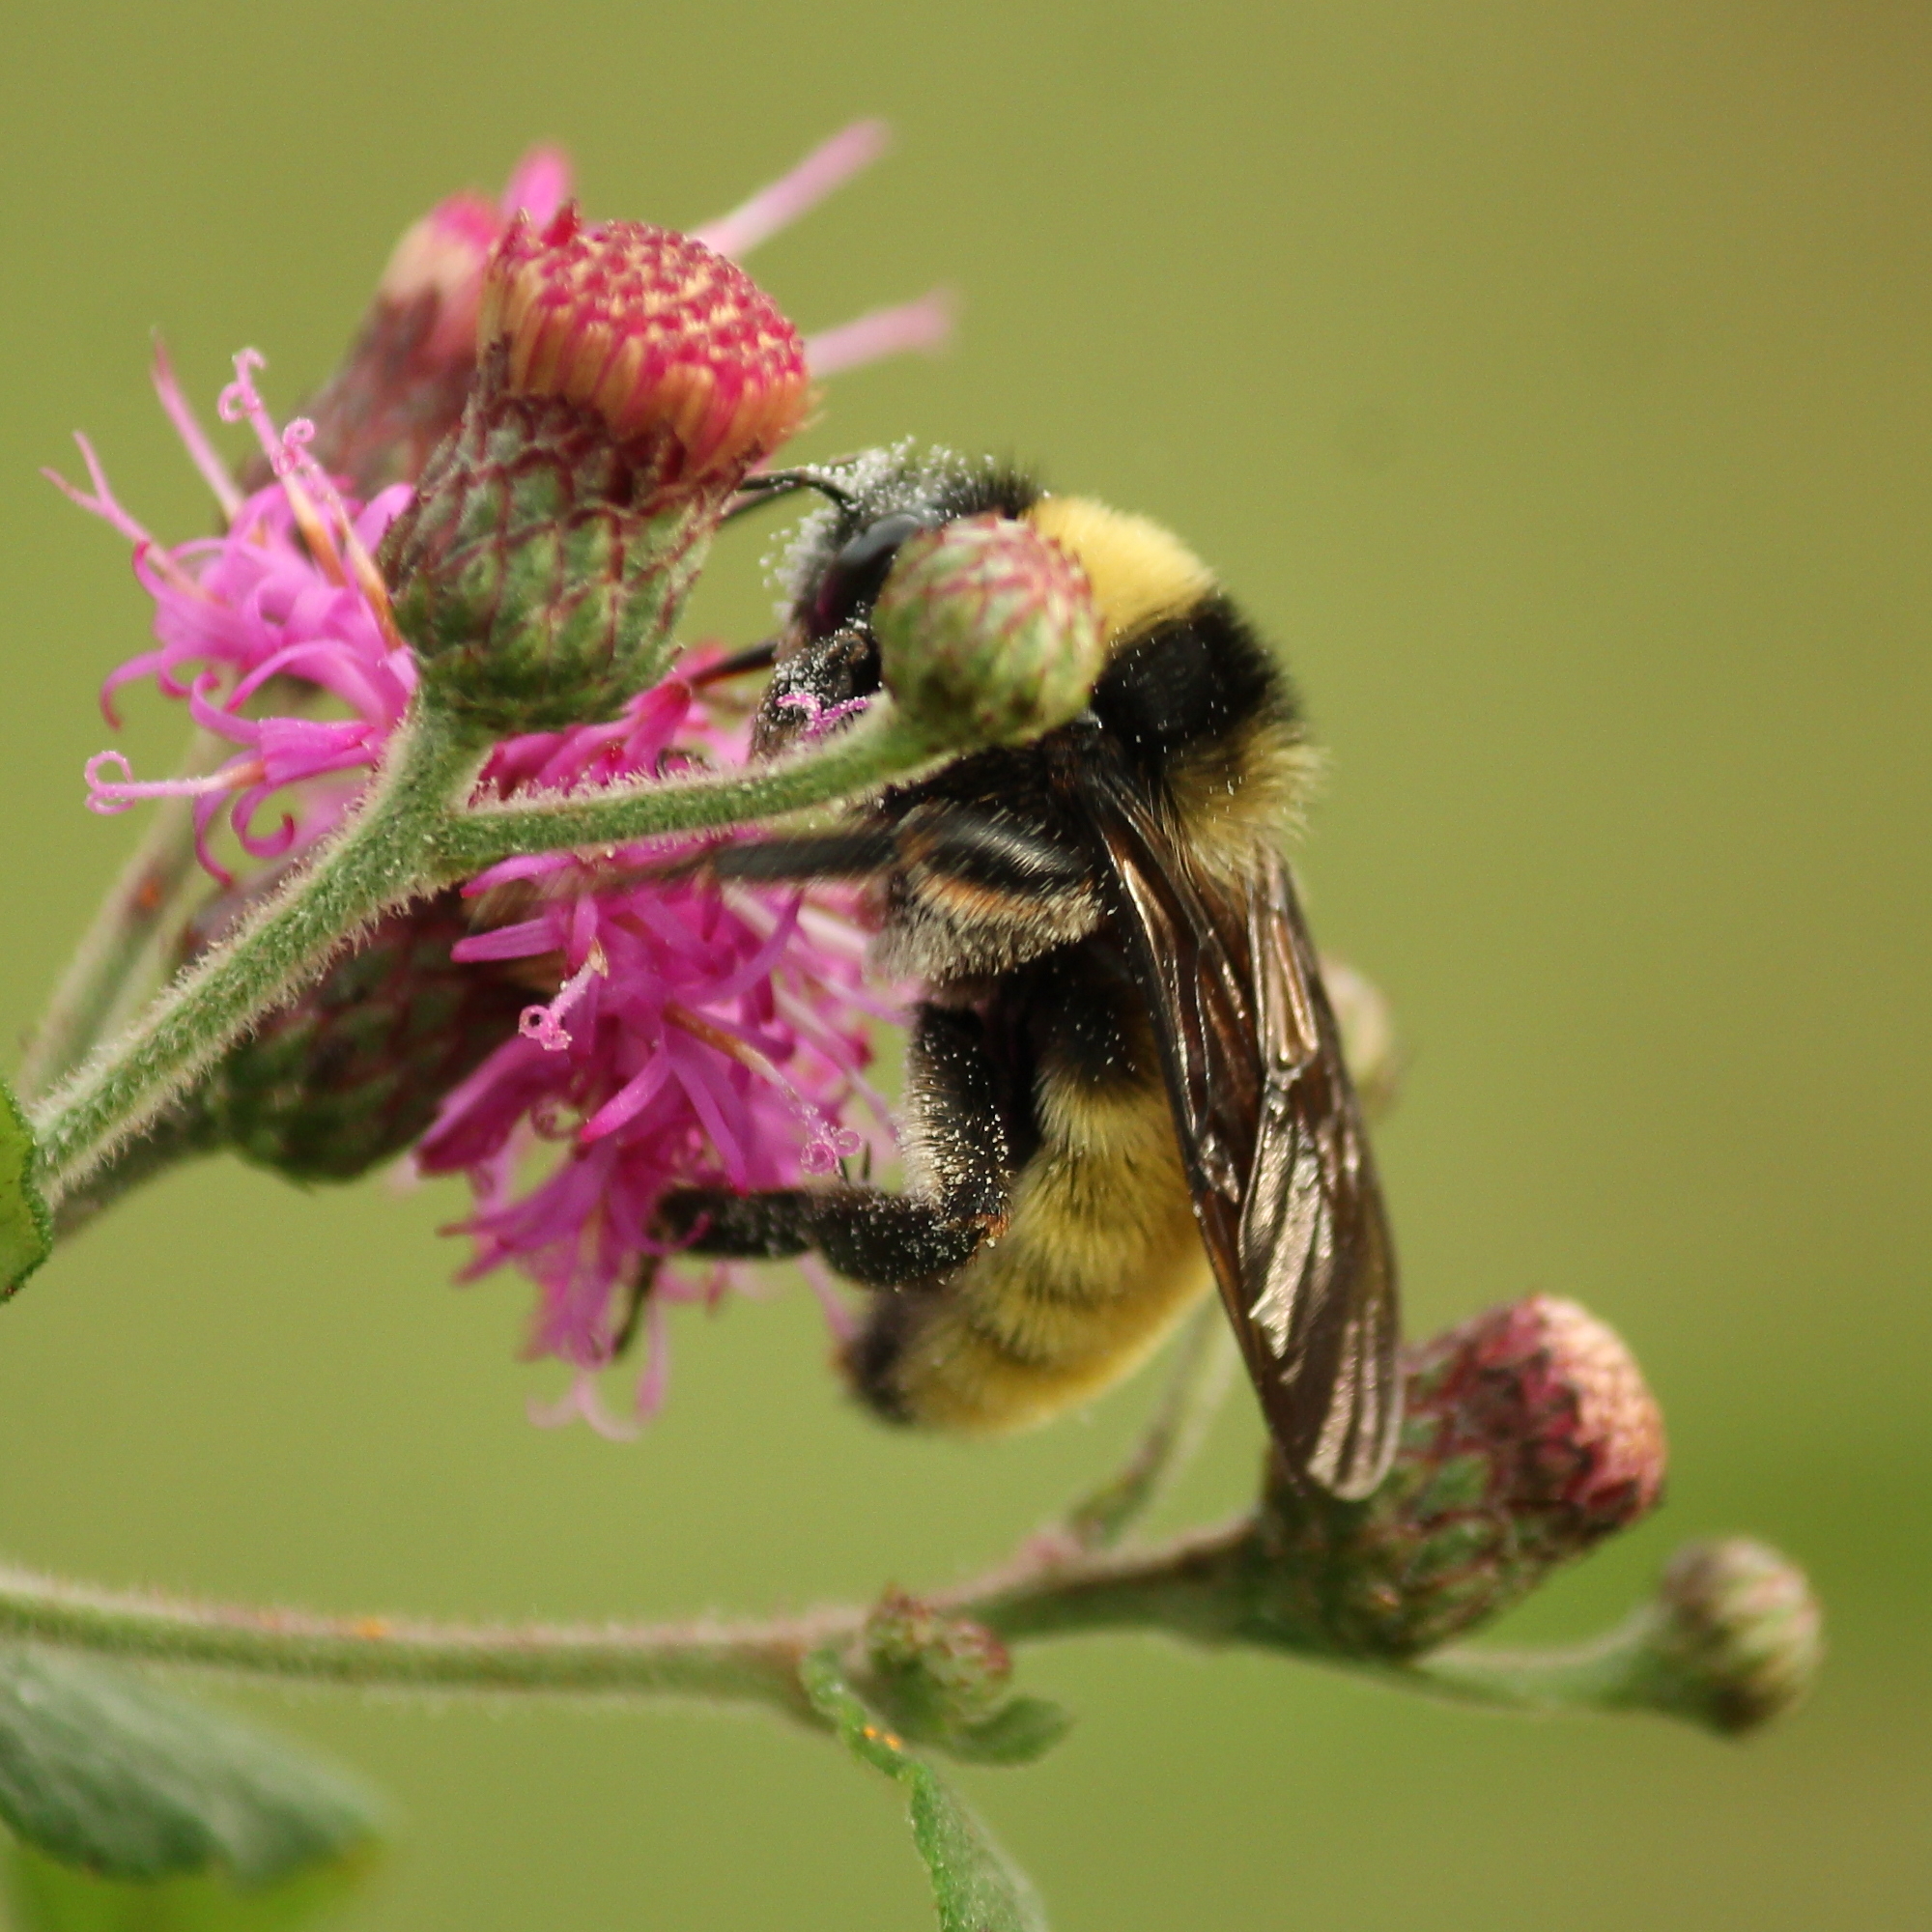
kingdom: Animalia
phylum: Arthropoda
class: Insecta
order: Hymenoptera
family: Apidae
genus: Bombus
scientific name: Bombus pensylvanicus
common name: Bumble bee
